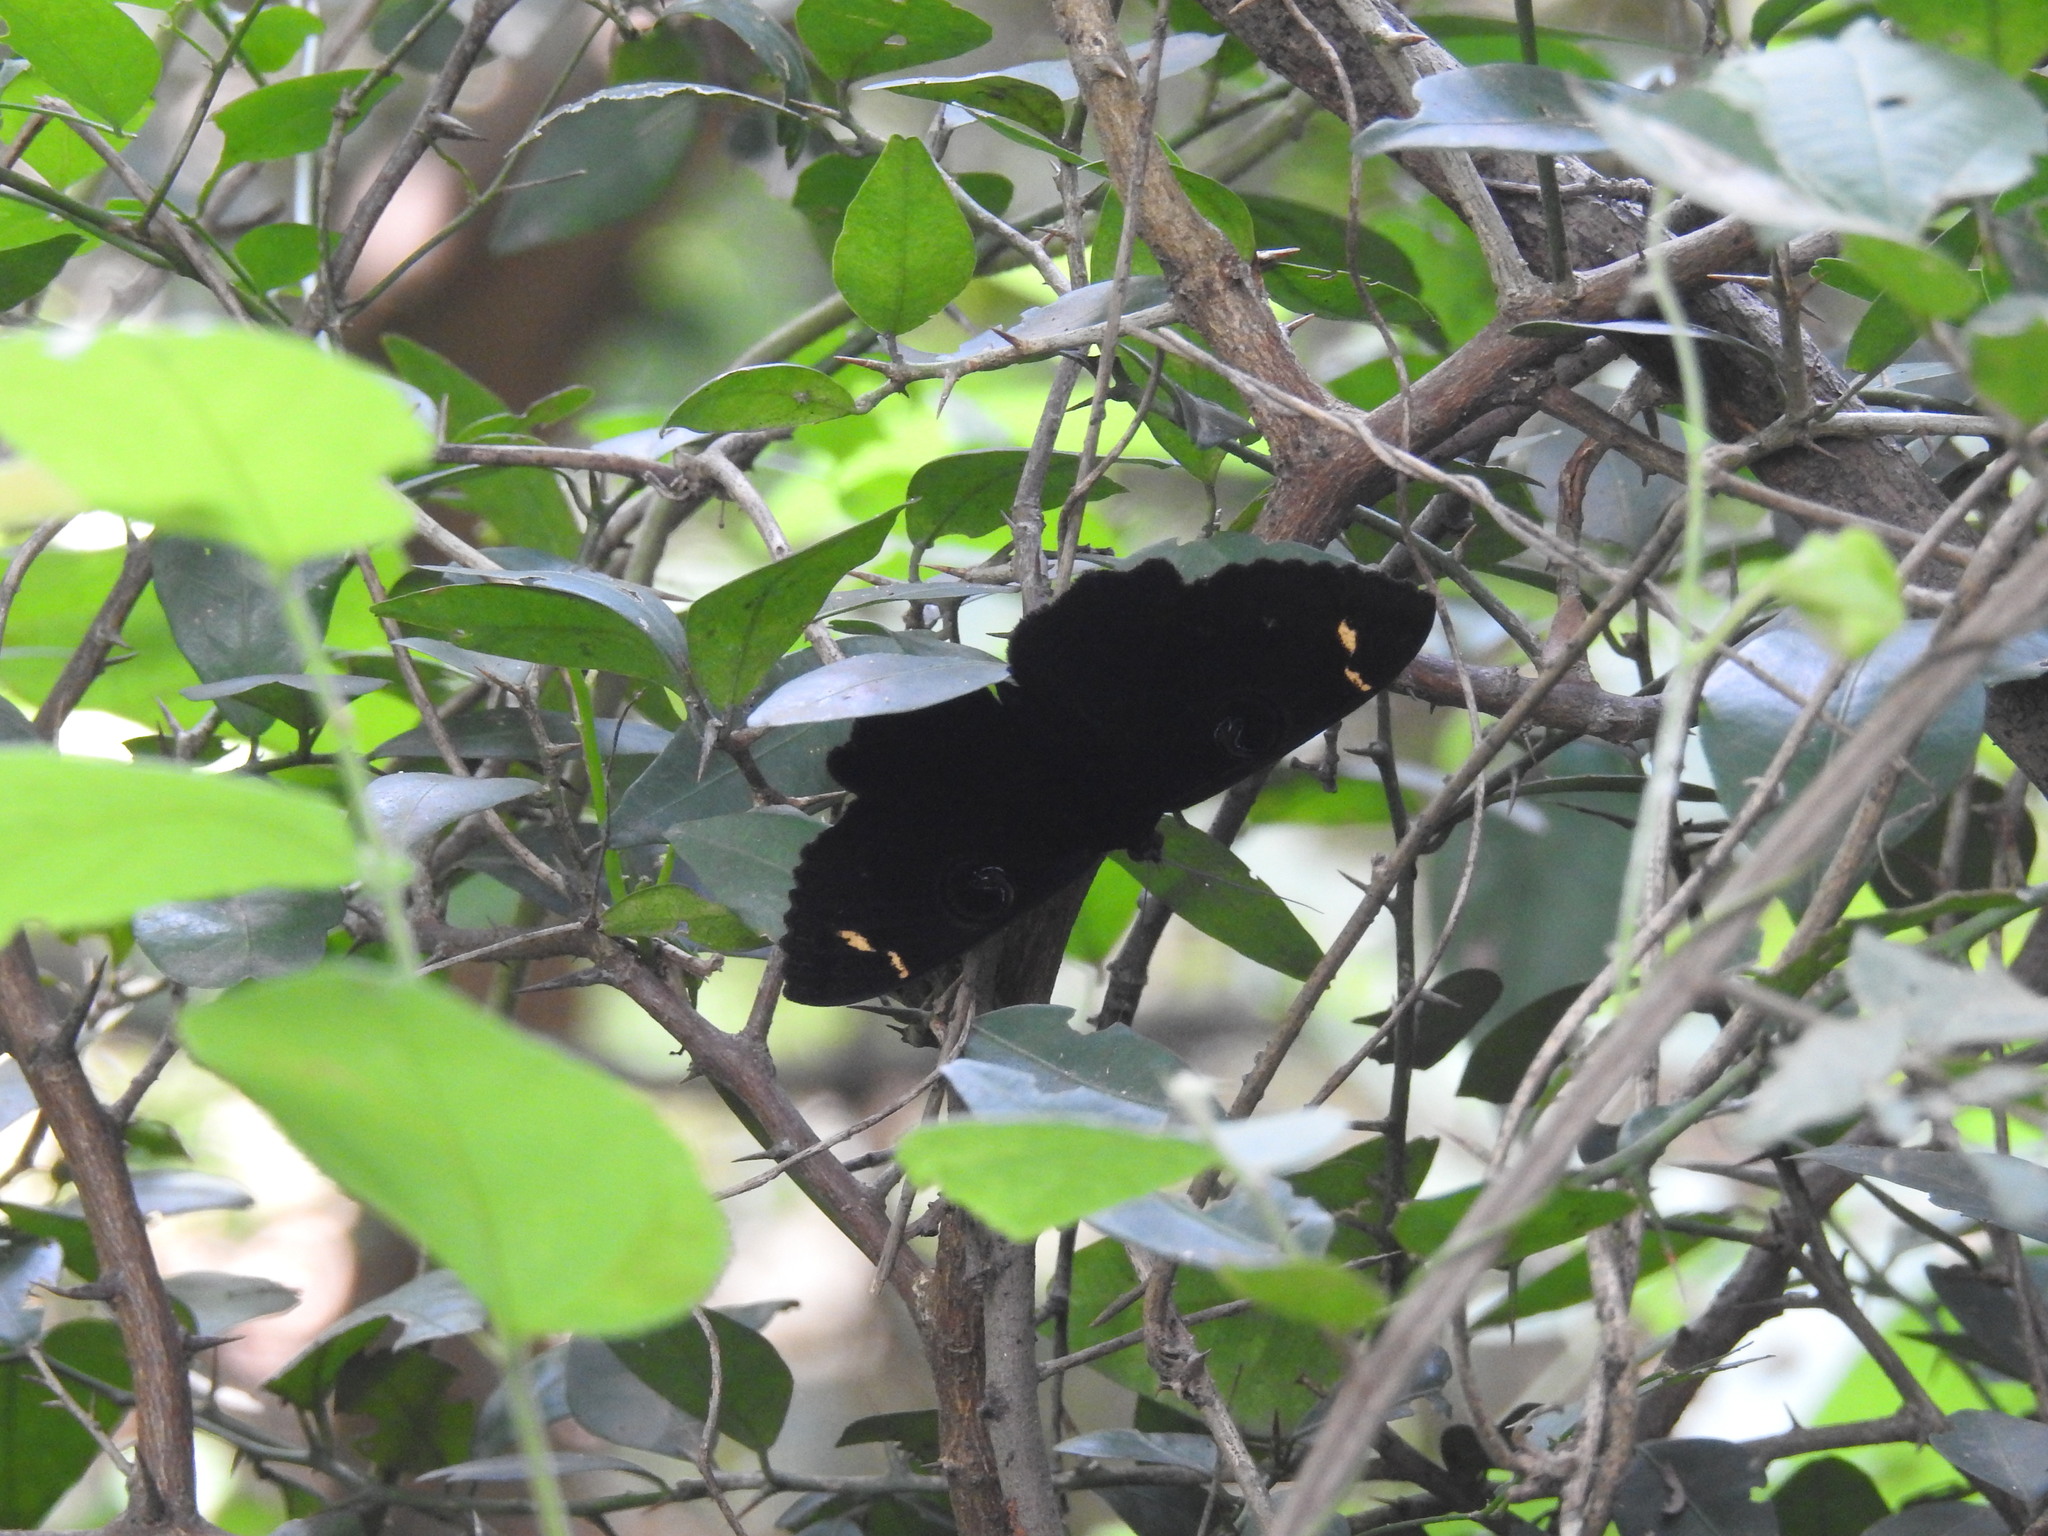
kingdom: Animalia
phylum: Arthropoda
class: Insecta
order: Lepidoptera
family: Erebidae
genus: Erebus
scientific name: Erebus hieroglyphica
